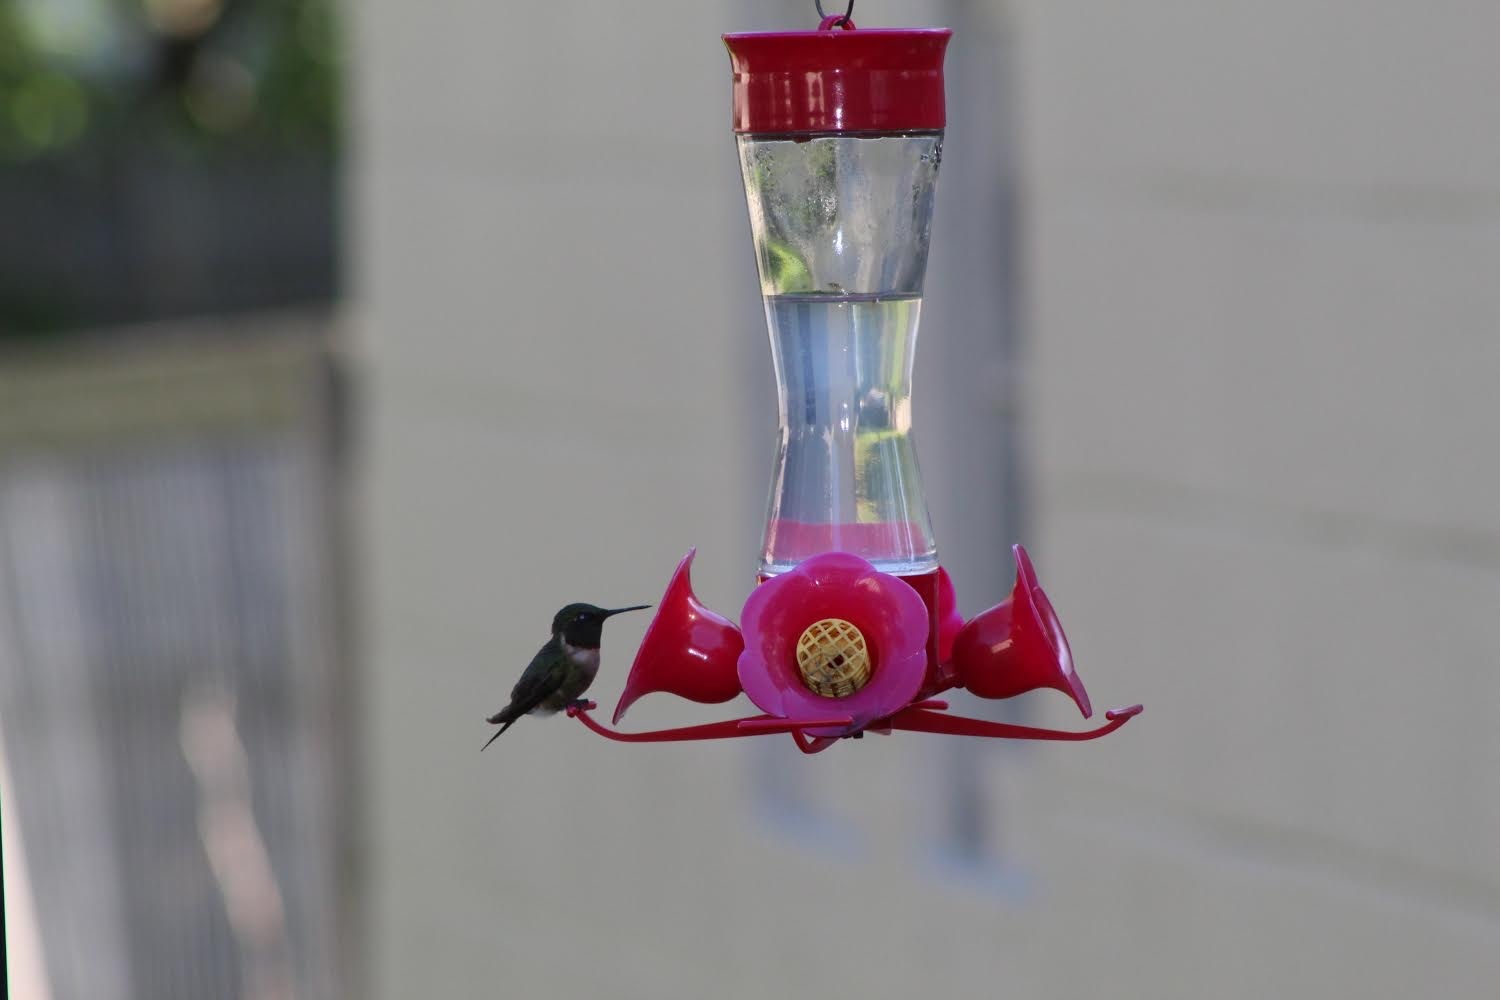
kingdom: Animalia
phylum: Chordata
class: Aves
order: Apodiformes
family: Trochilidae
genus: Archilochus
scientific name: Archilochus colubris
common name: Ruby-throated hummingbird
